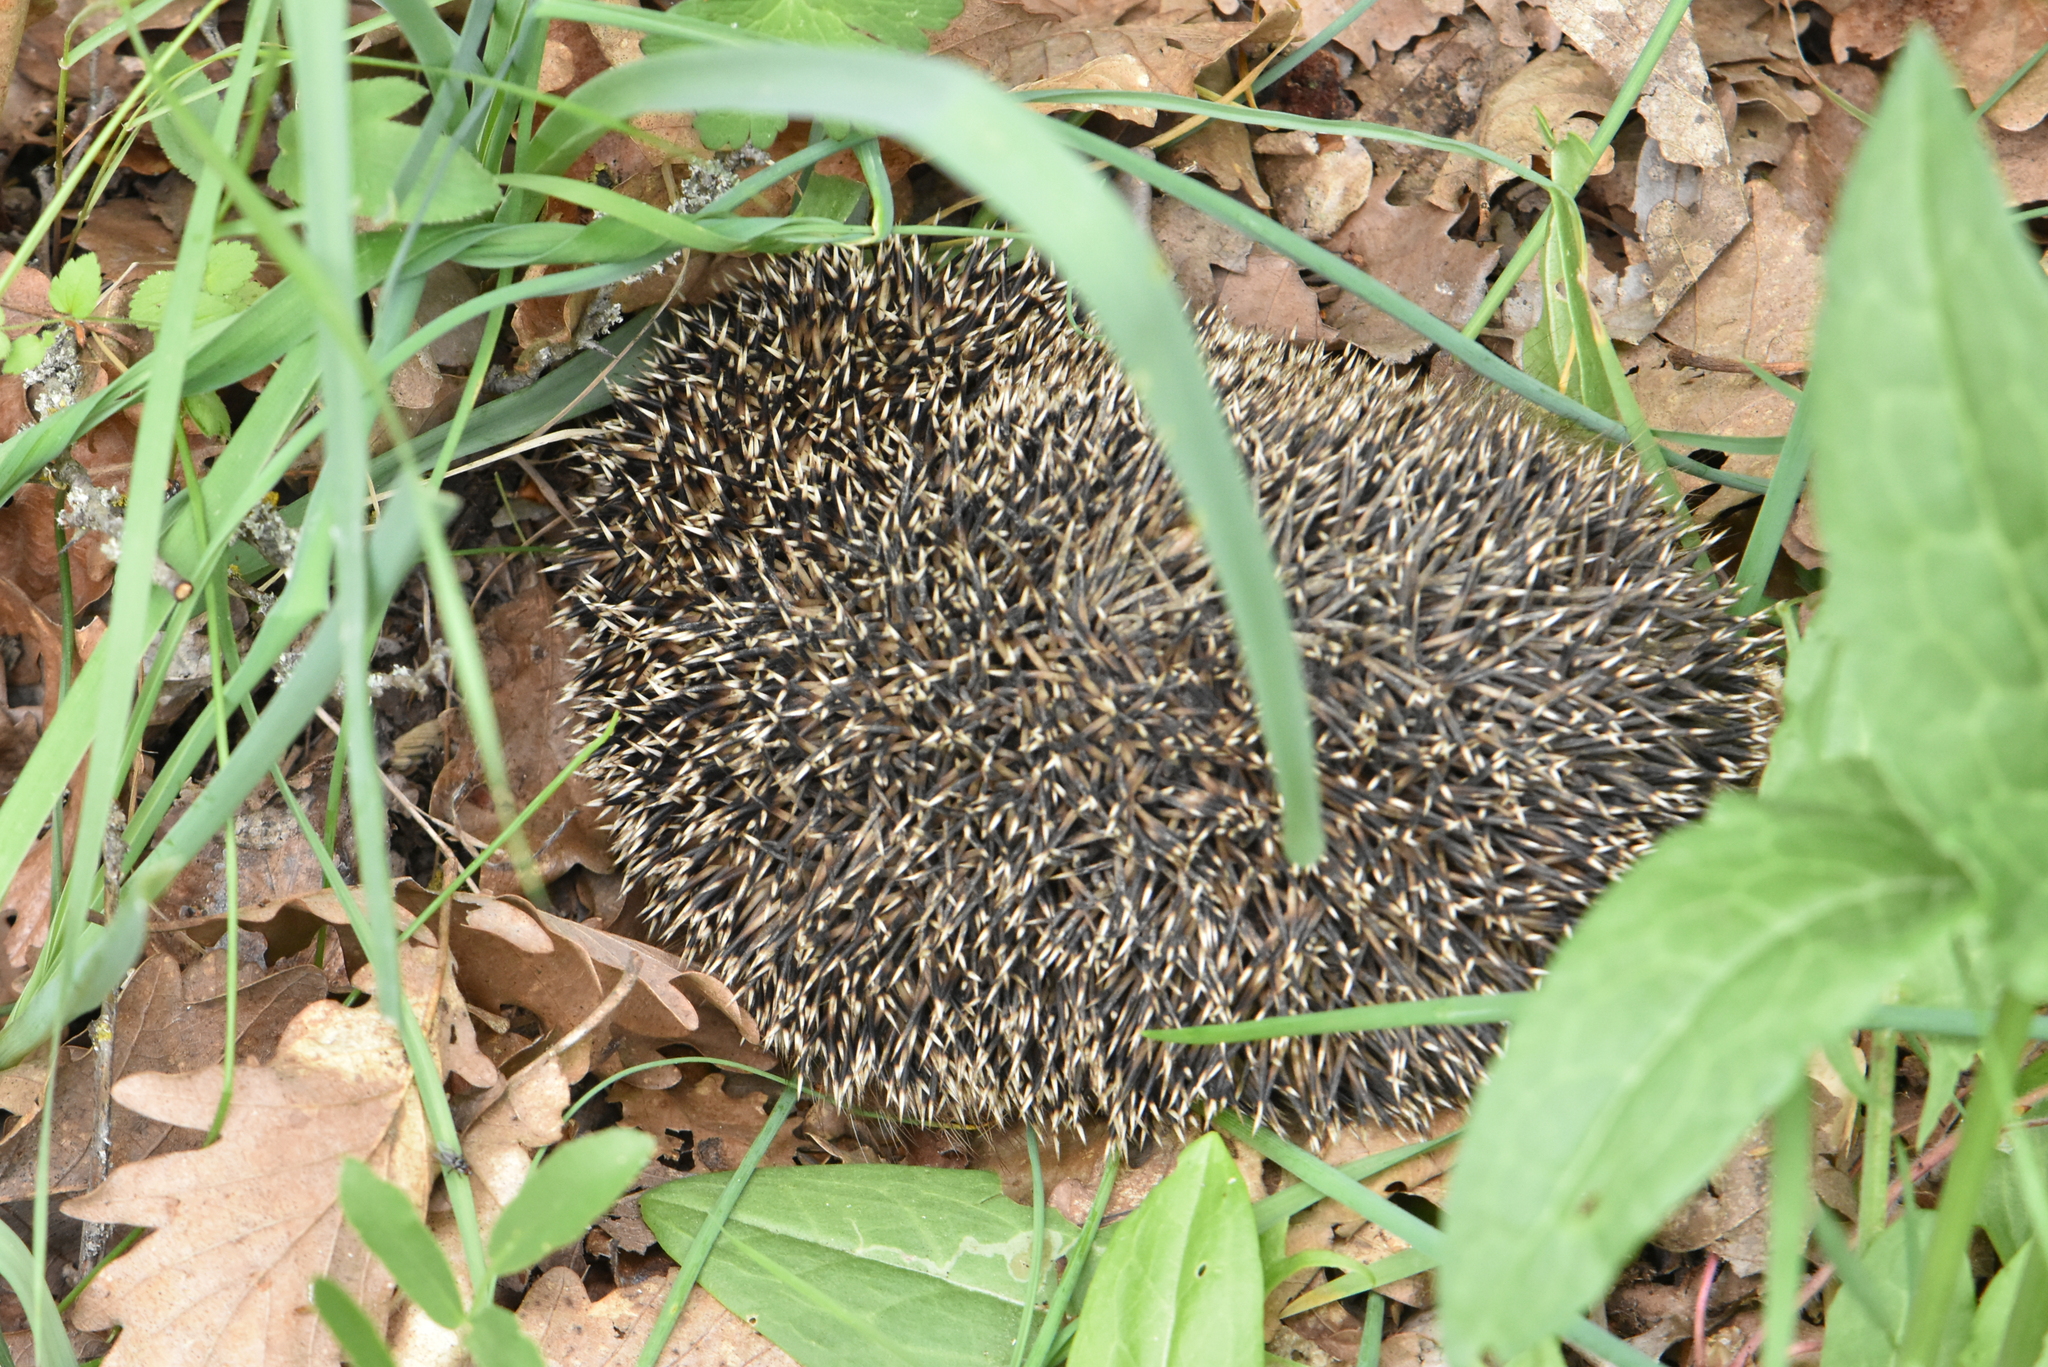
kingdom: Animalia
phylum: Chordata
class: Mammalia
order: Erinaceomorpha
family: Erinaceidae
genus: Erinaceus
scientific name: Erinaceus roumanicus
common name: Northern white-breasted hedgehog
